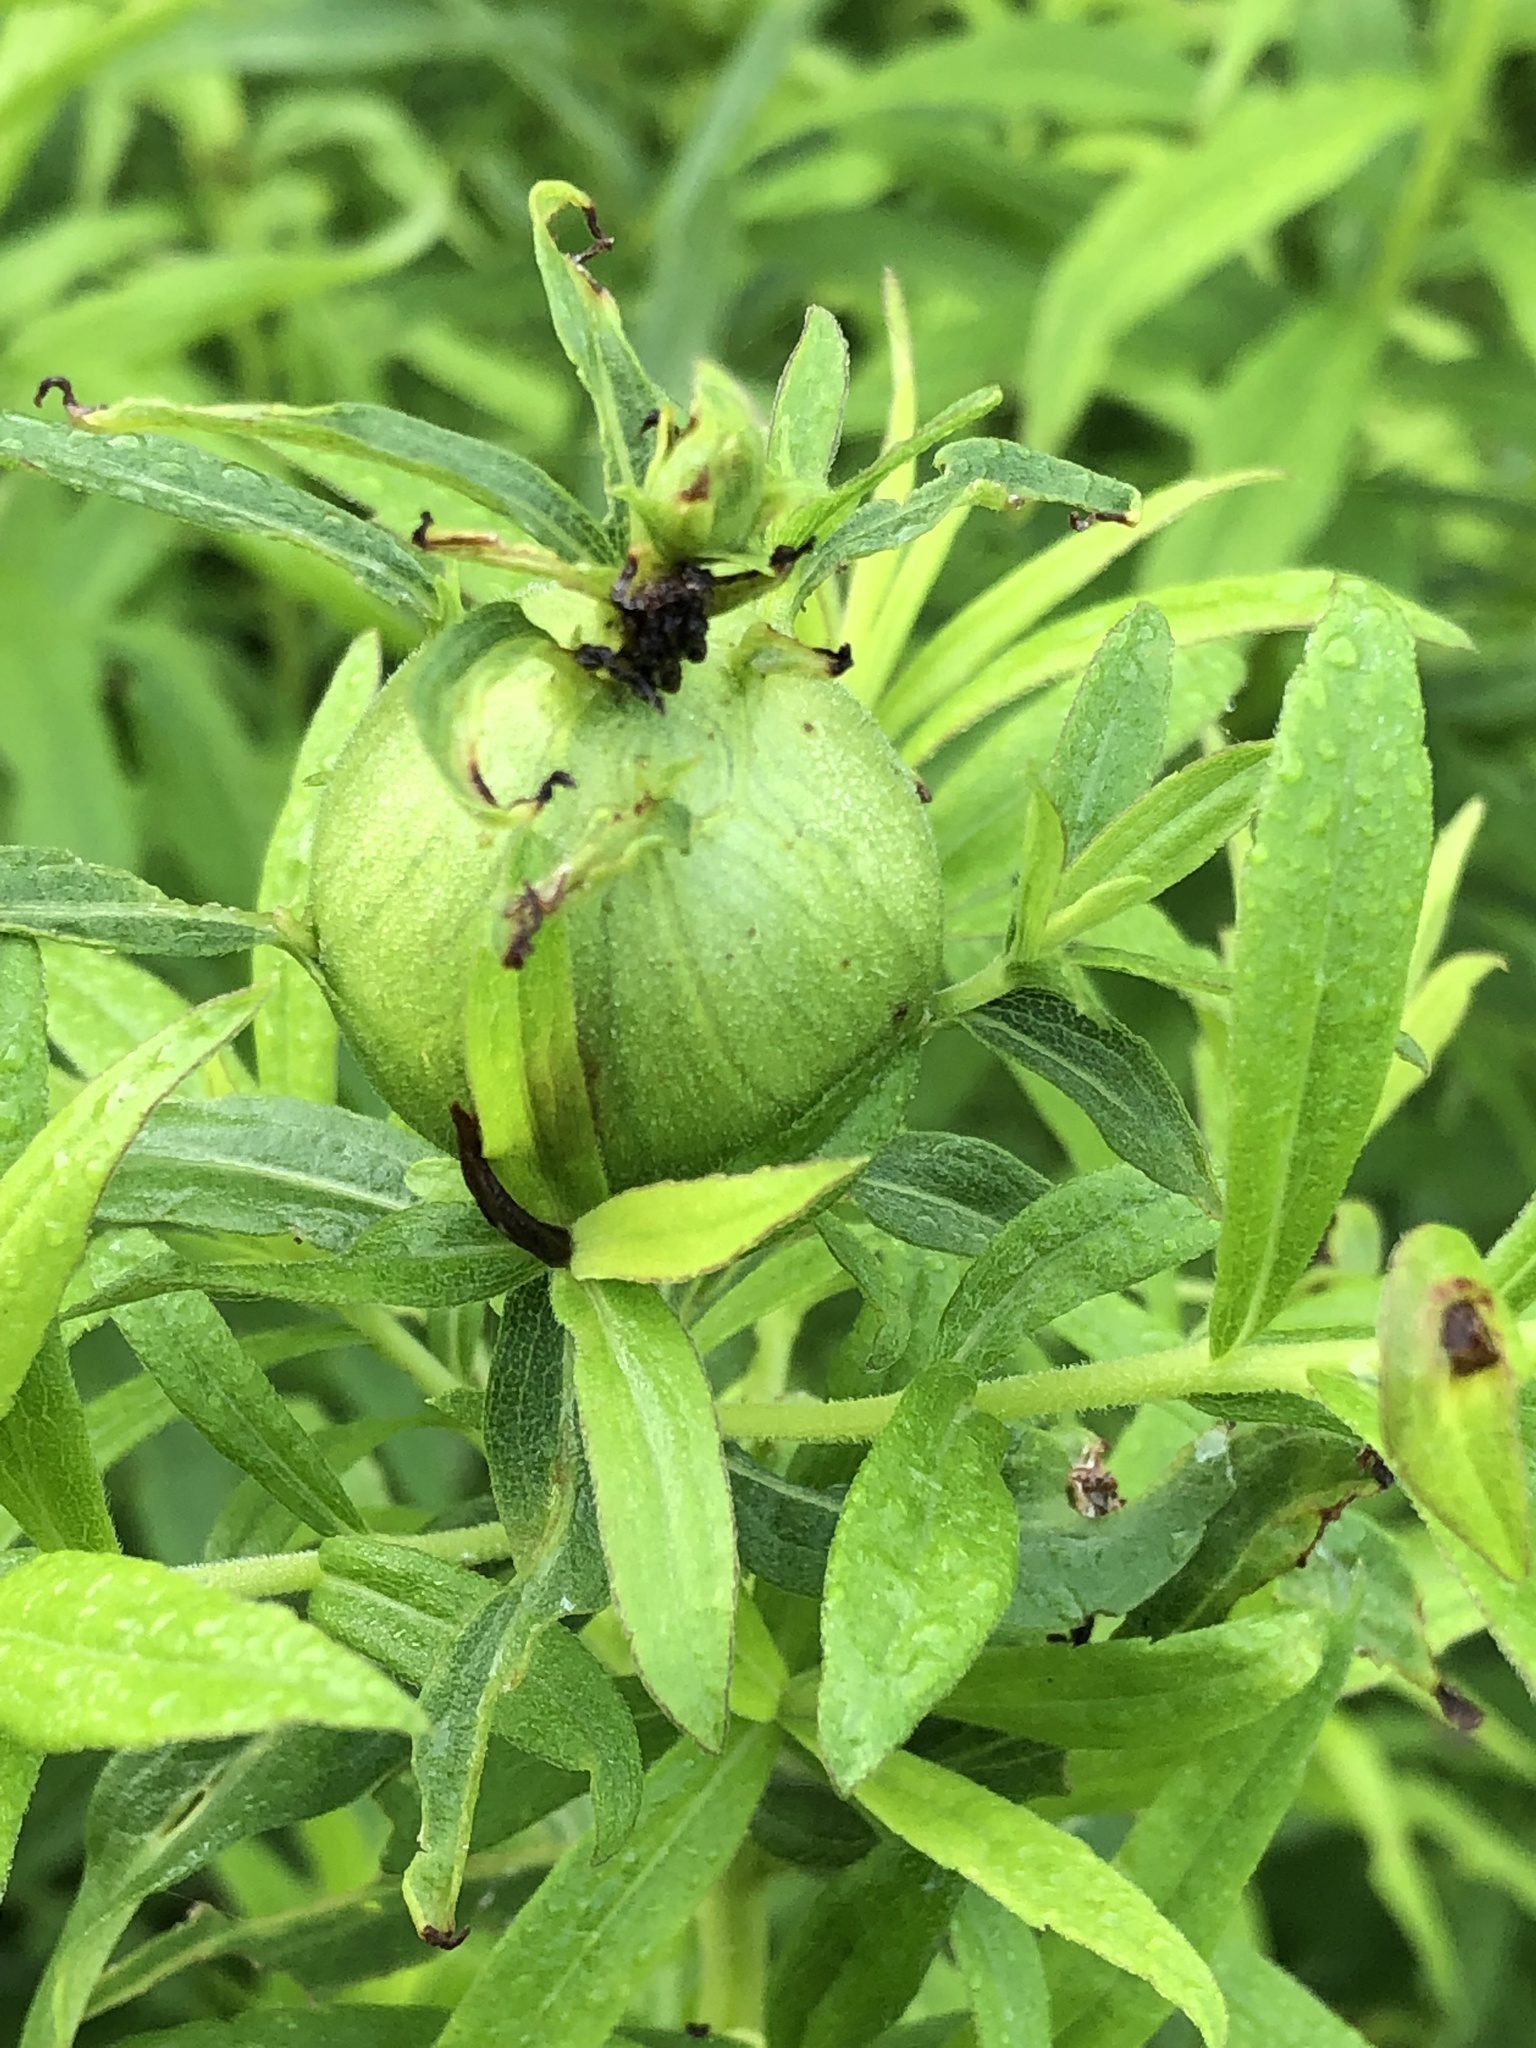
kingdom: Animalia
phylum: Arthropoda
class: Insecta
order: Diptera
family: Tephritidae
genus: Eurosta
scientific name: Eurosta solidaginis
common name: Goldenrod gall fly
